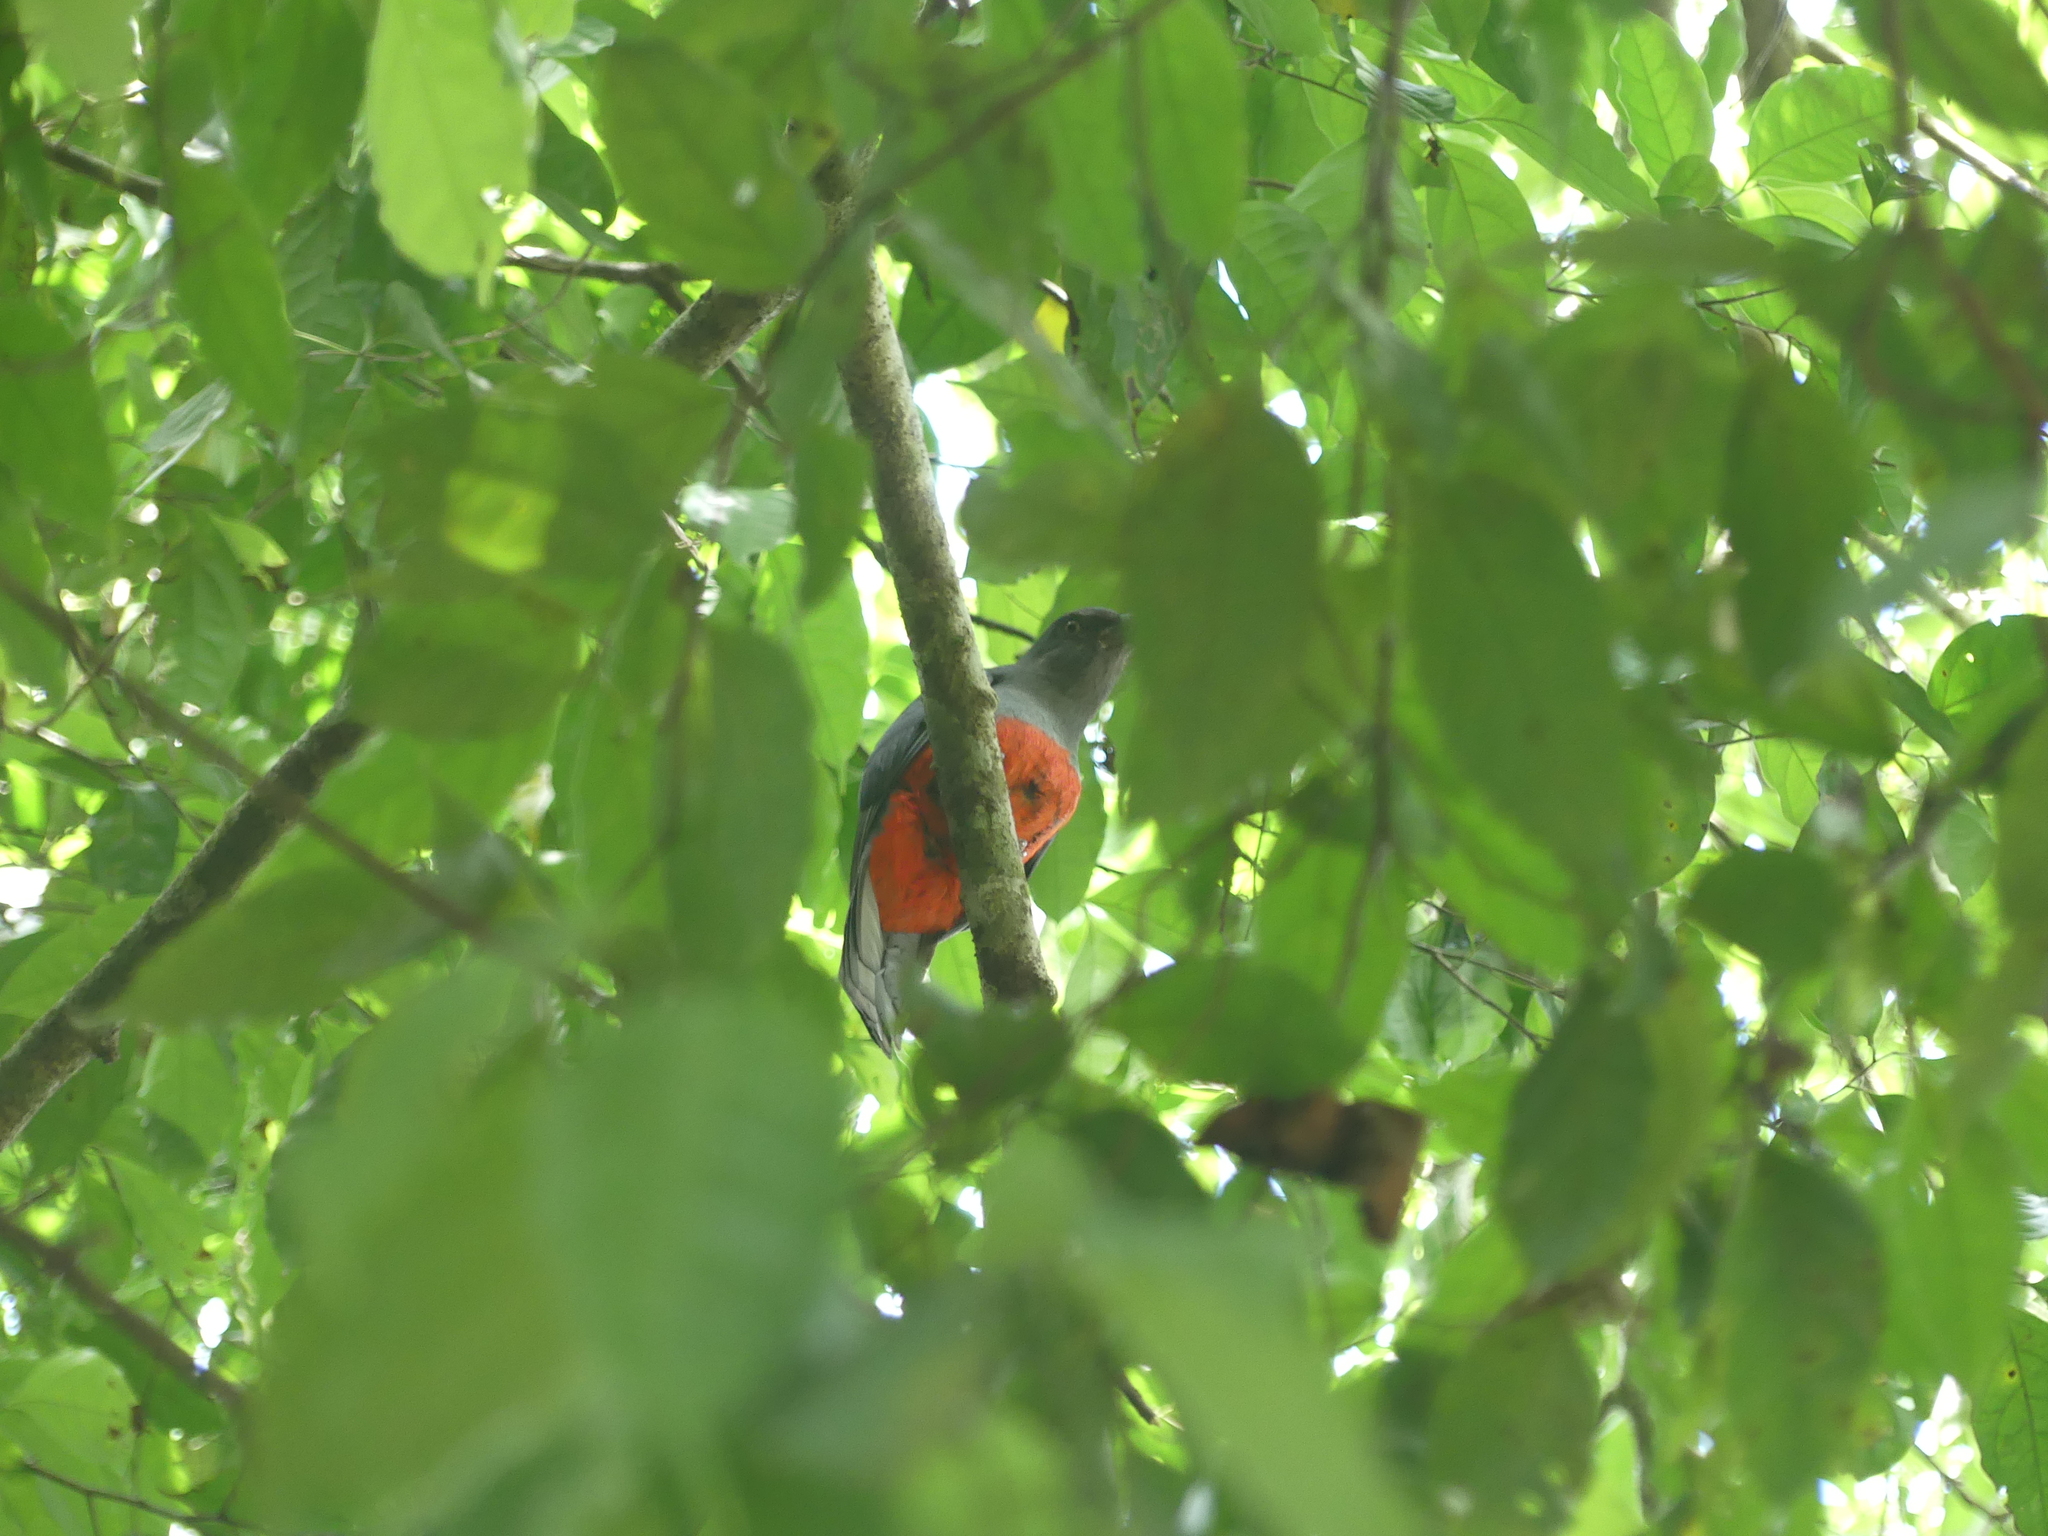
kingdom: Animalia
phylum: Chordata
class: Aves
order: Trogoniformes
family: Trogonidae
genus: Trogon
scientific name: Trogon massena
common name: Slaty-tailed trogon
